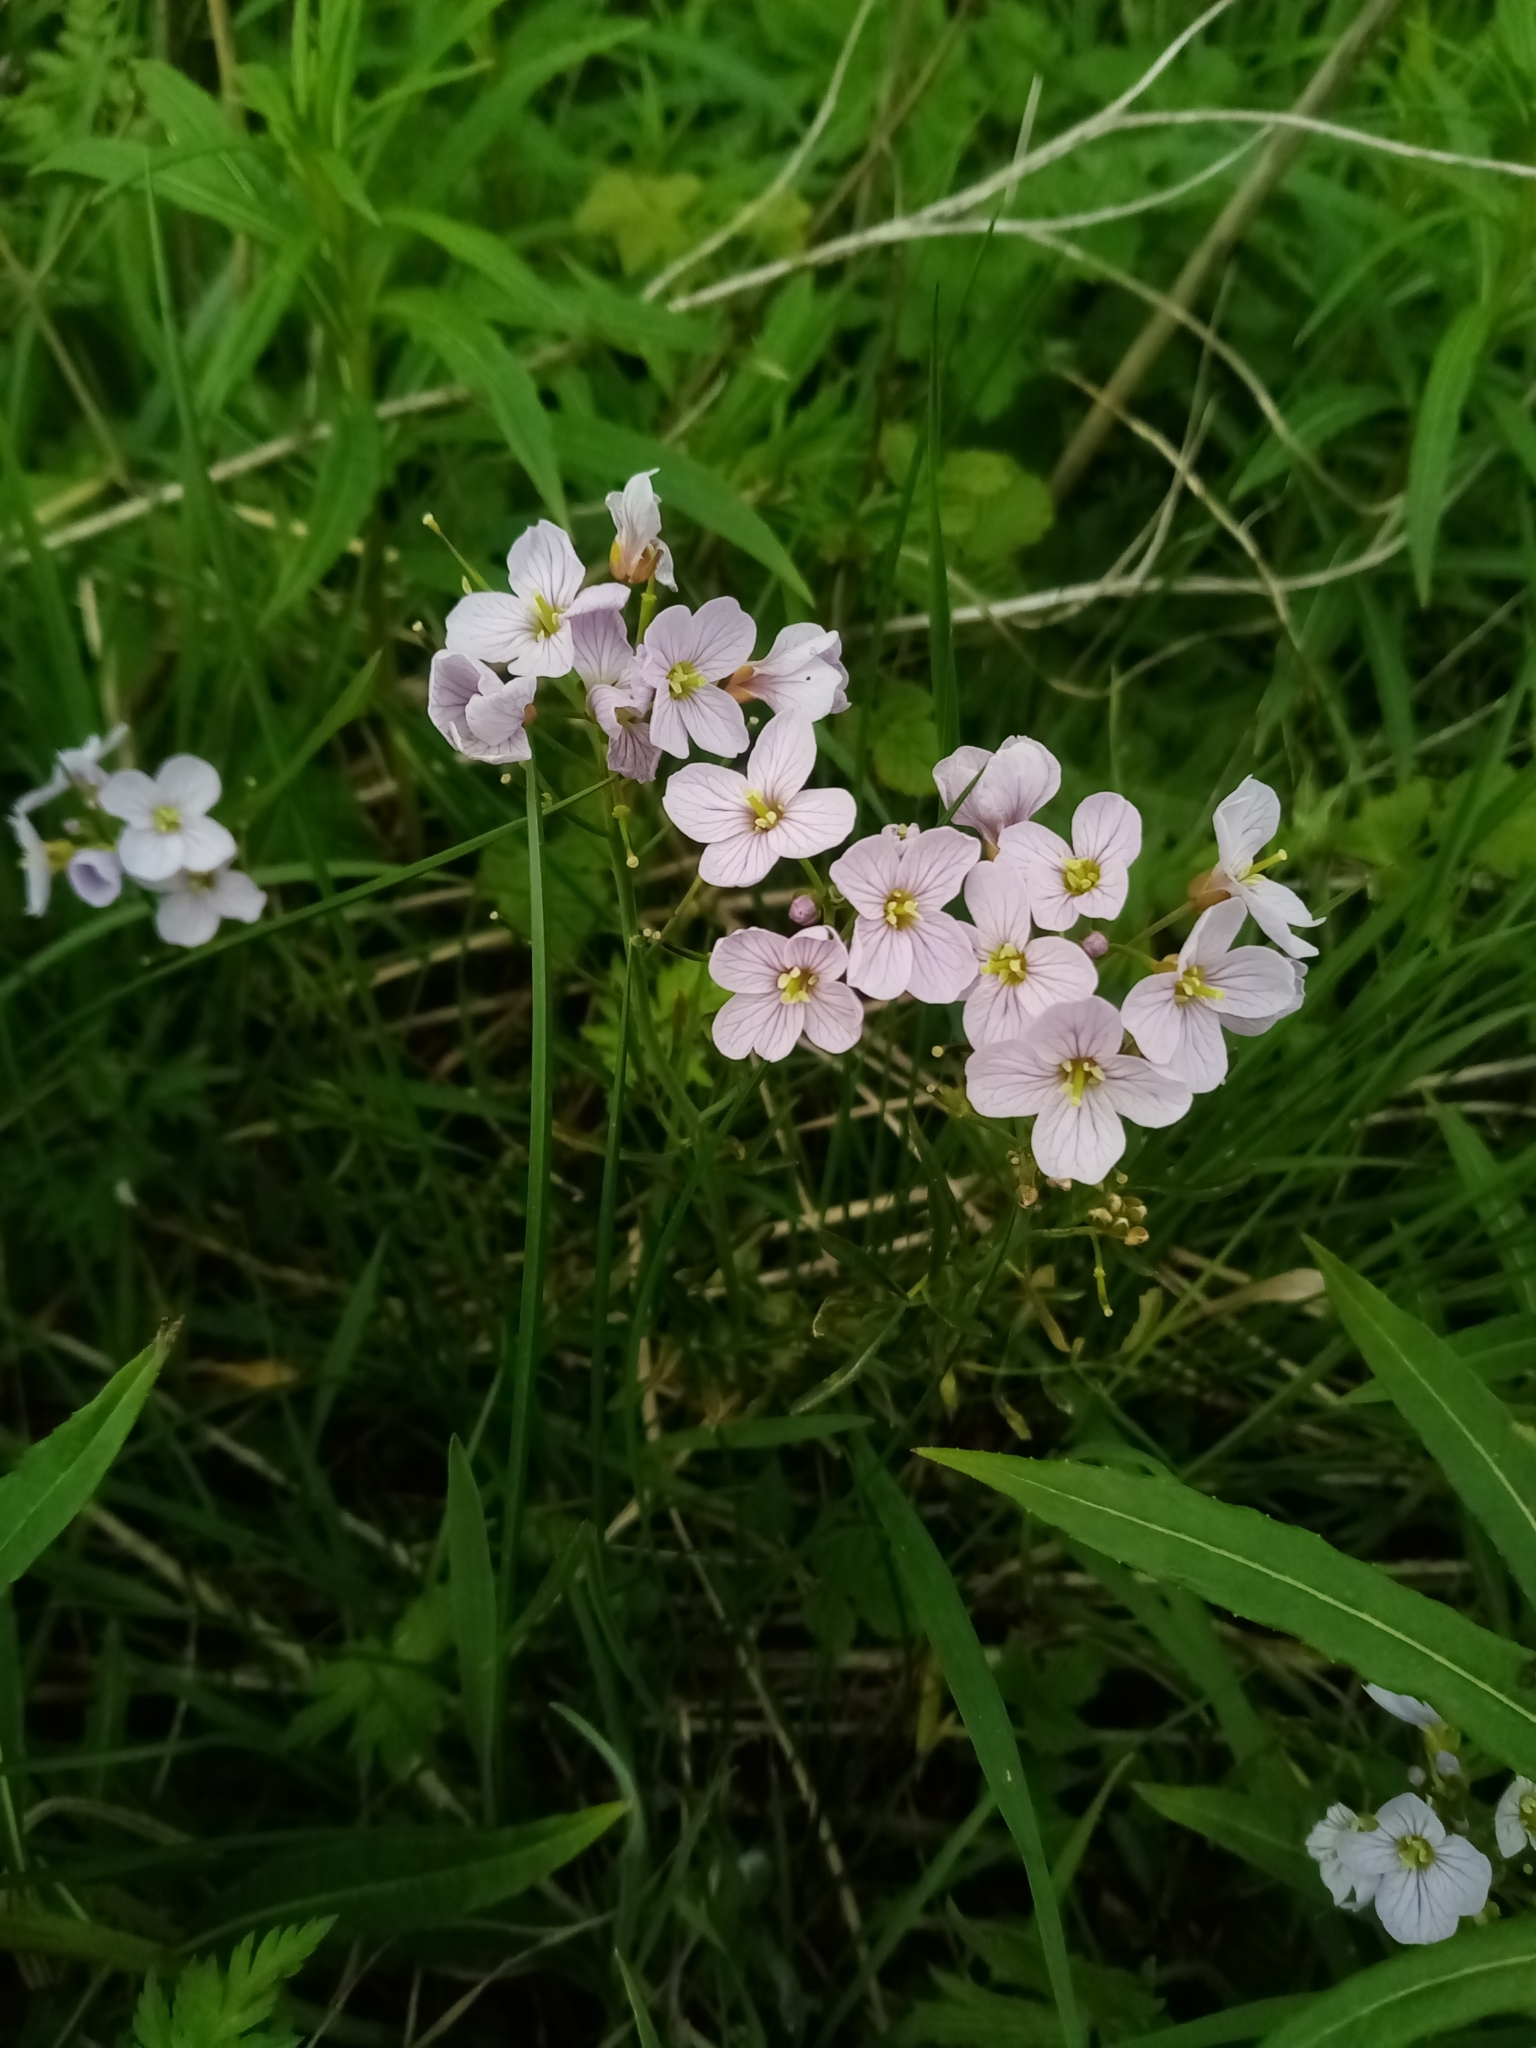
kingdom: Plantae
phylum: Tracheophyta
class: Magnoliopsida
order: Brassicales
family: Brassicaceae
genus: Cardamine
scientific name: Cardamine pratensis
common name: Cuckoo flower
